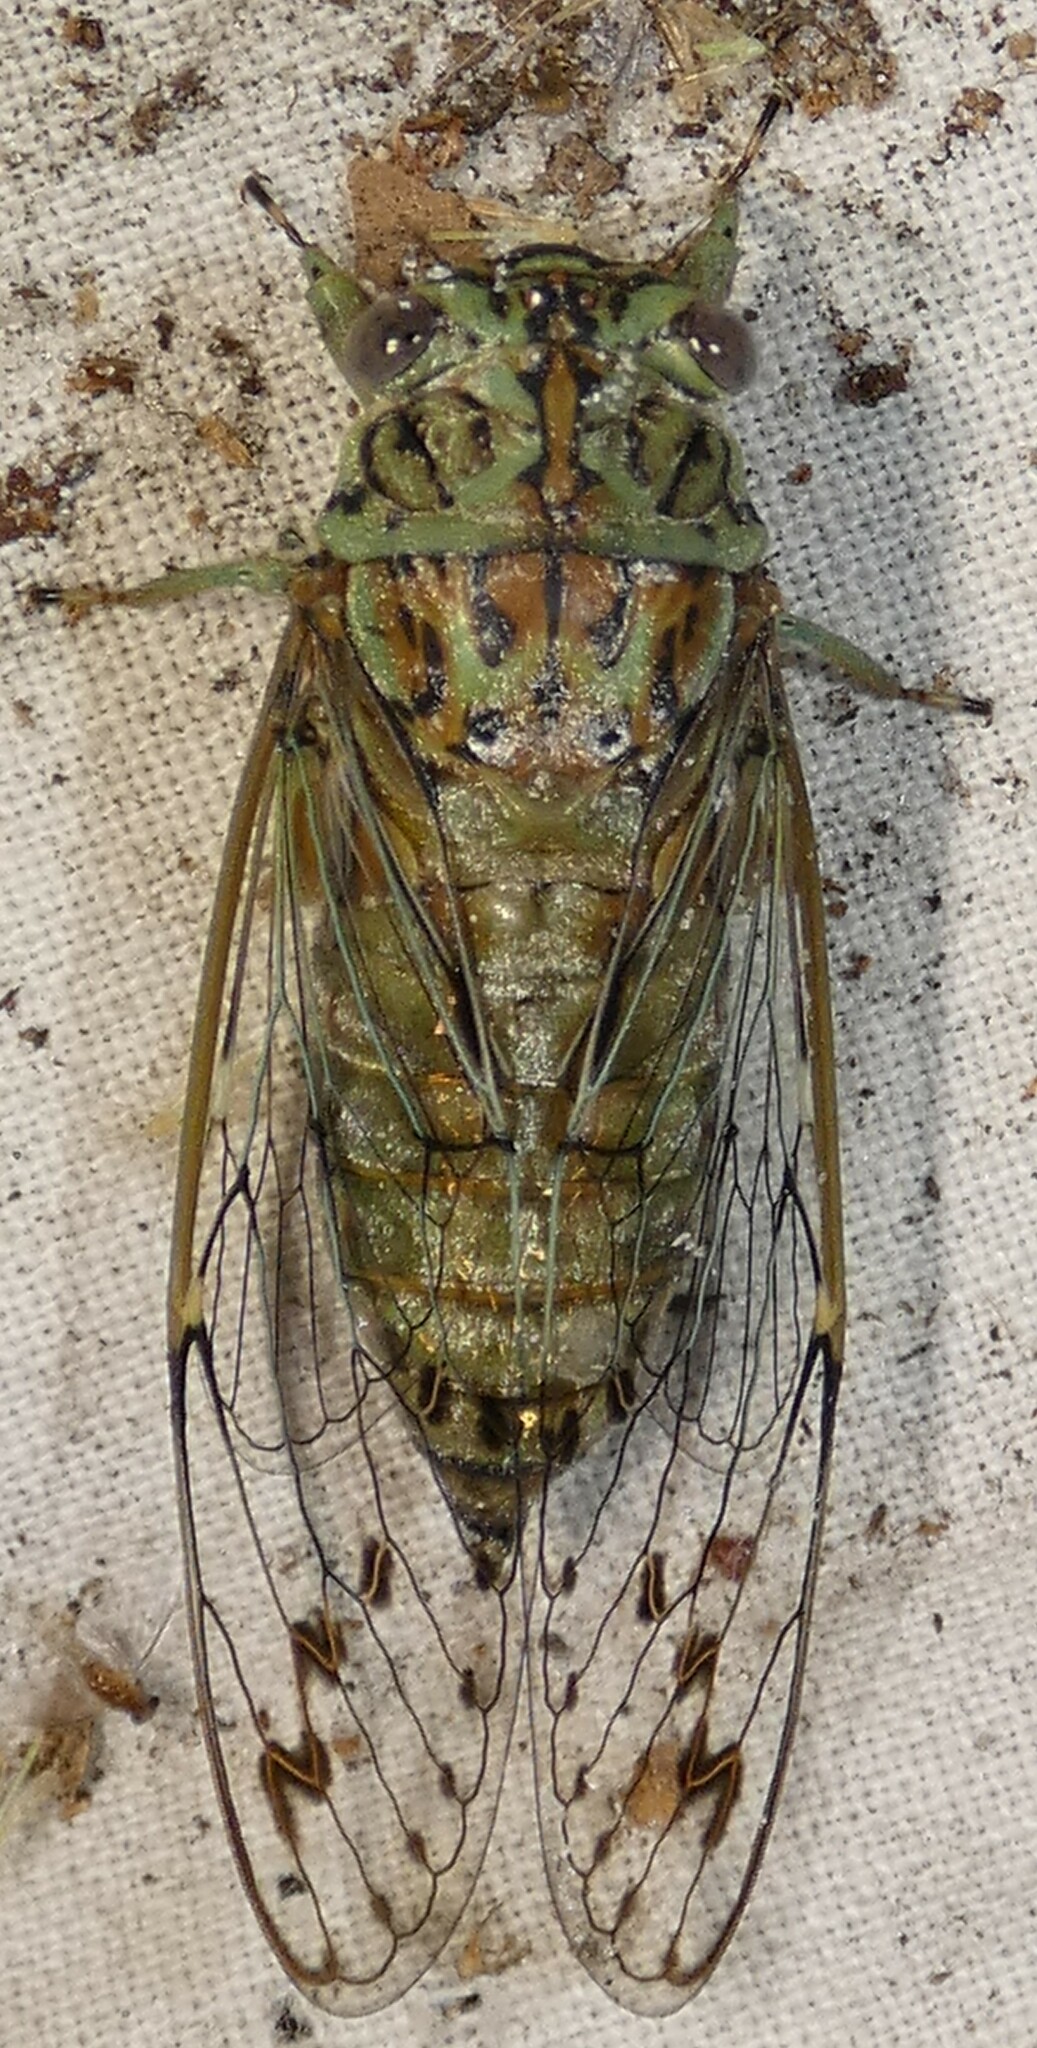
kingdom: Animalia
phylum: Arthropoda
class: Insecta
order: Hemiptera
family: Cicadidae
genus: Neocicada
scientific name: Neocicada hieroglyphica
